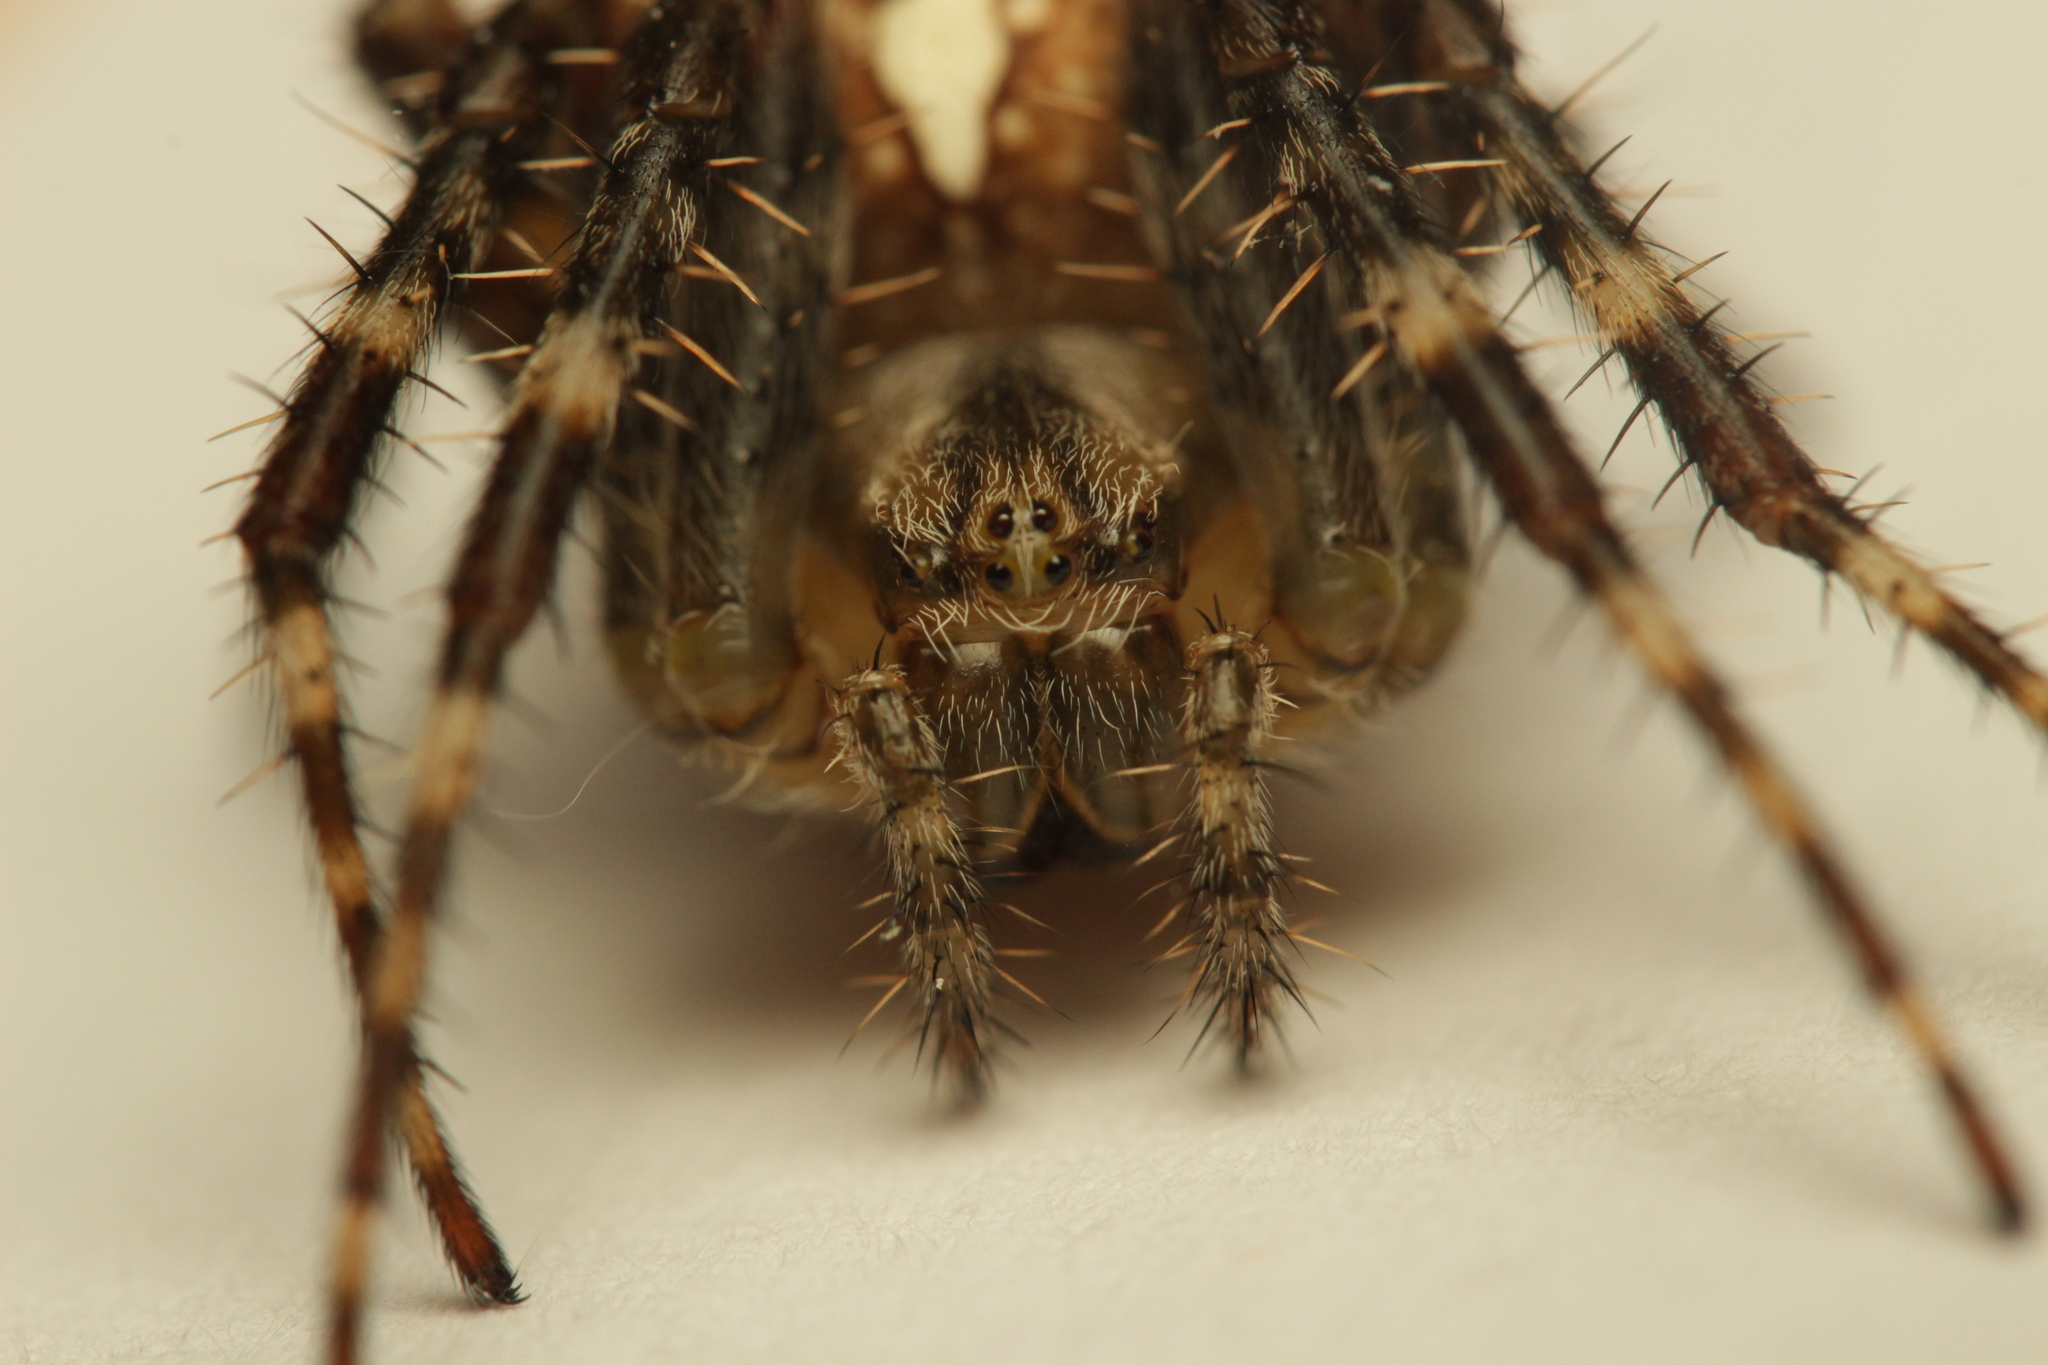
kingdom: Animalia
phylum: Arthropoda
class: Arachnida
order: Araneae
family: Araneidae
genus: Araneus
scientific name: Araneus diadematus
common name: Cross orbweaver
